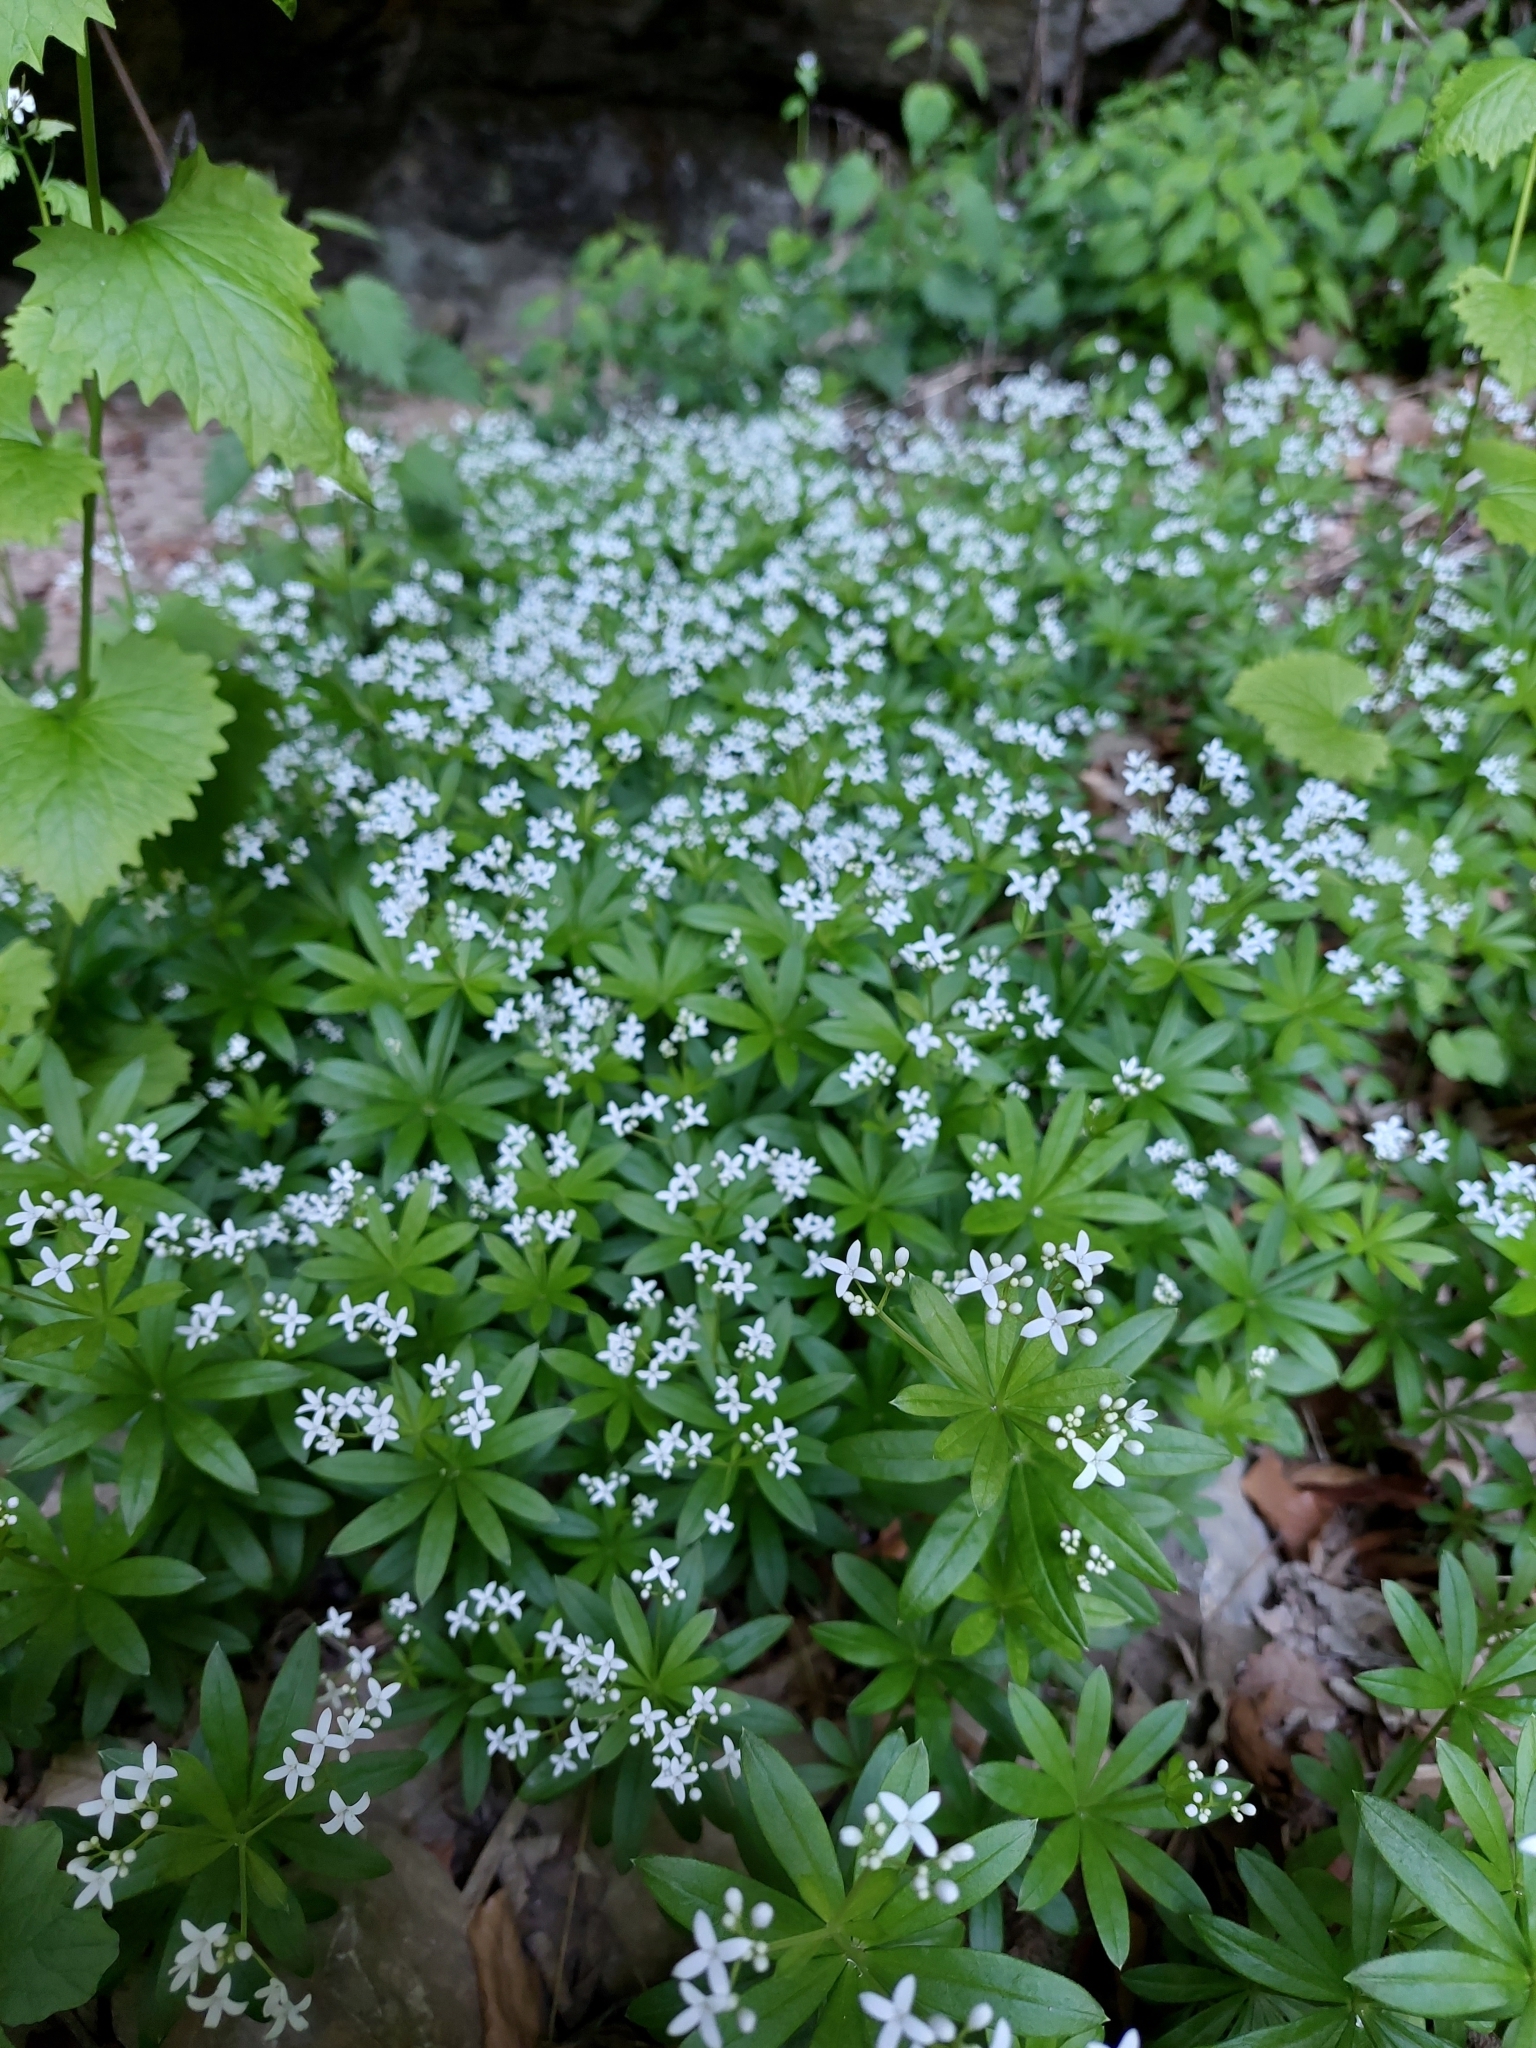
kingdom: Plantae
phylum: Tracheophyta
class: Magnoliopsida
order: Gentianales
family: Rubiaceae
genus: Galium
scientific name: Galium odoratum
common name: Sweet woodruff
